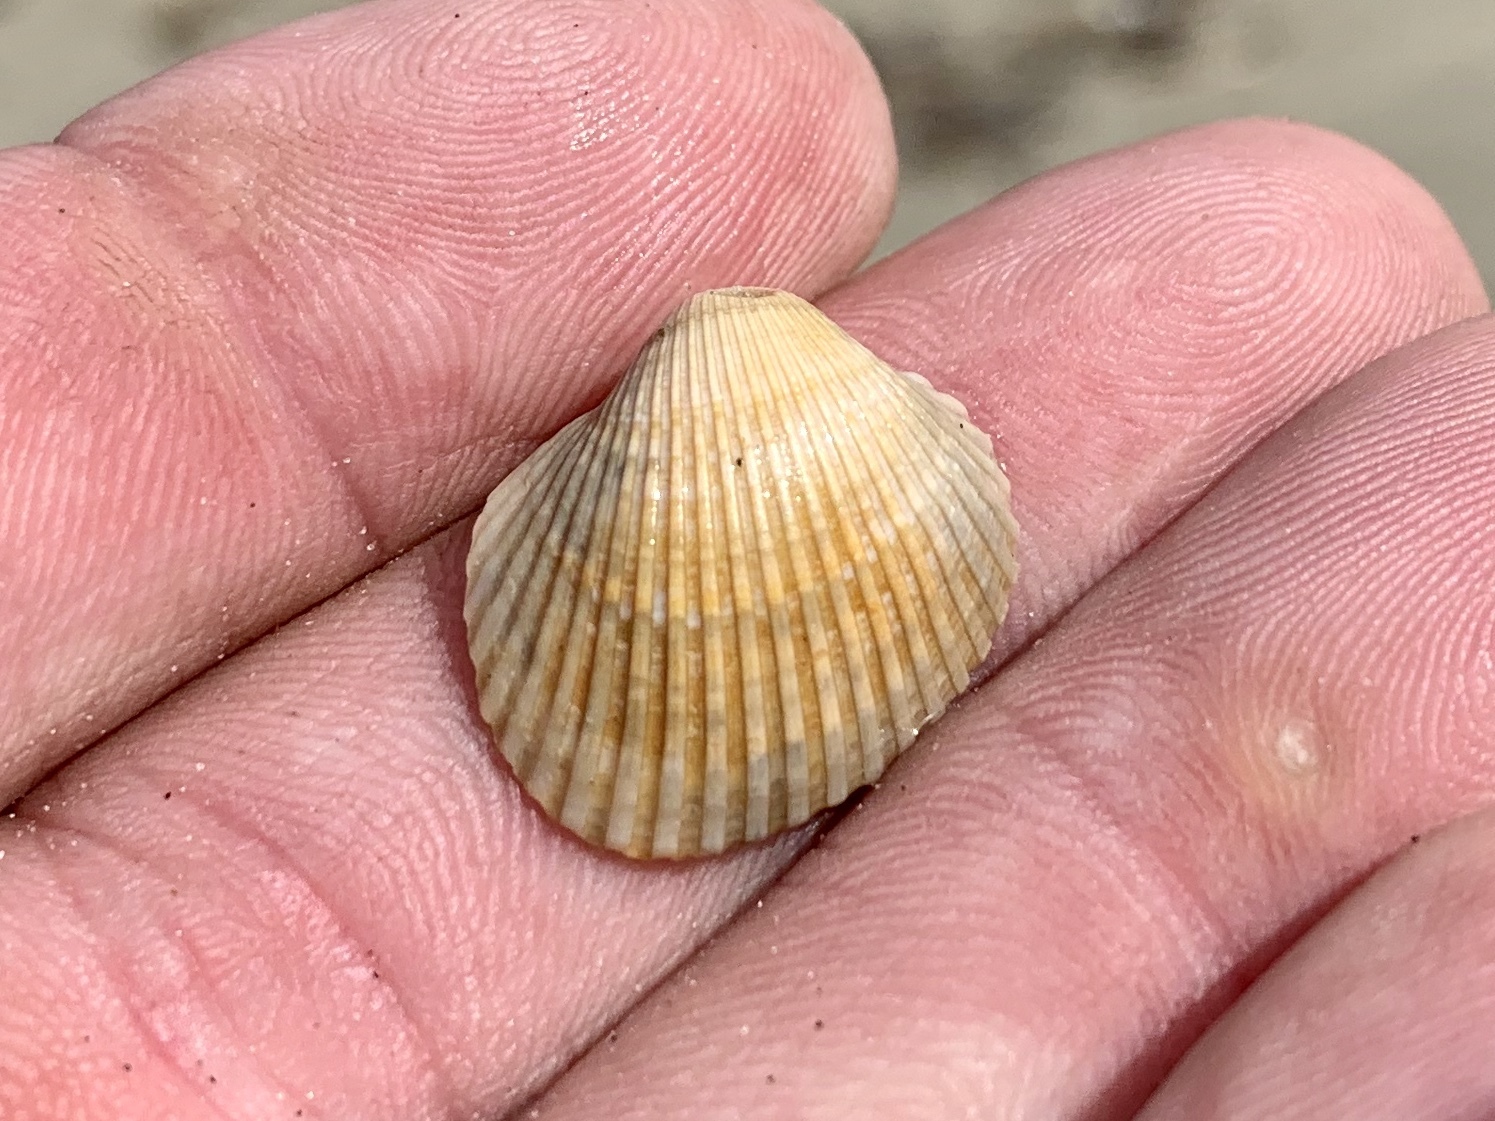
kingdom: Animalia
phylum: Mollusca
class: Bivalvia
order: Arcida
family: Arcidae
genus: Lunarca
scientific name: Lunarca ovalis
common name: Blood ark
